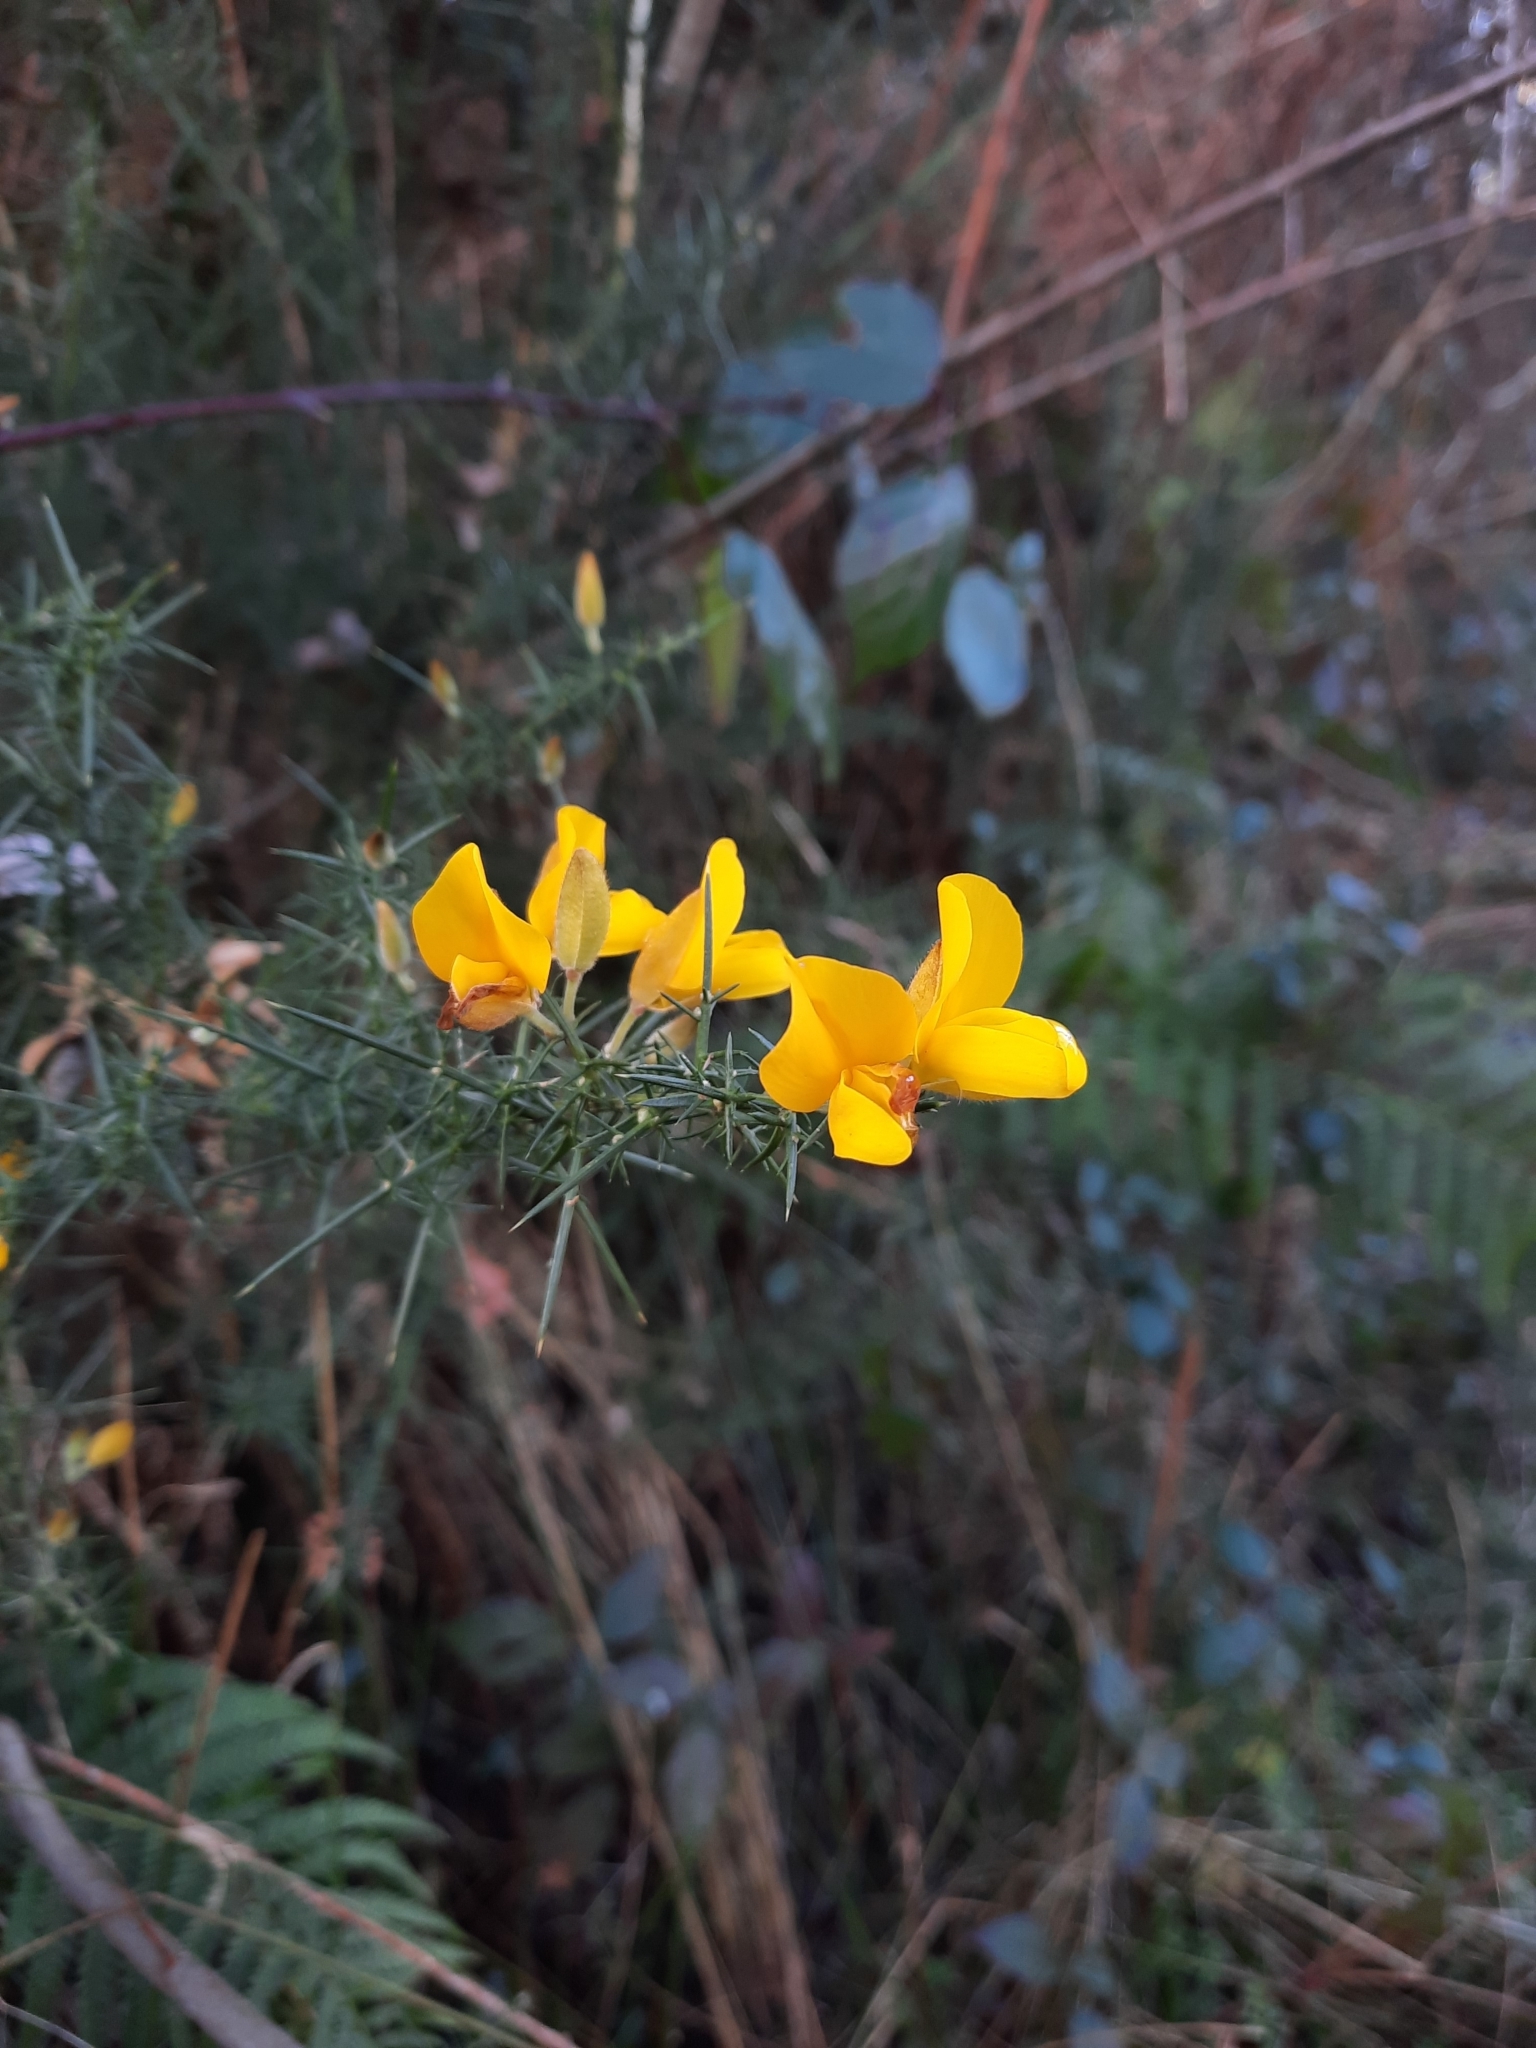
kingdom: Plantae
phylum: Tracheophyta
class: Magnoliopsida
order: Fabales
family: Fabaceae
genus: Ulex
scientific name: Ulex europaeus
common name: Common gorse
